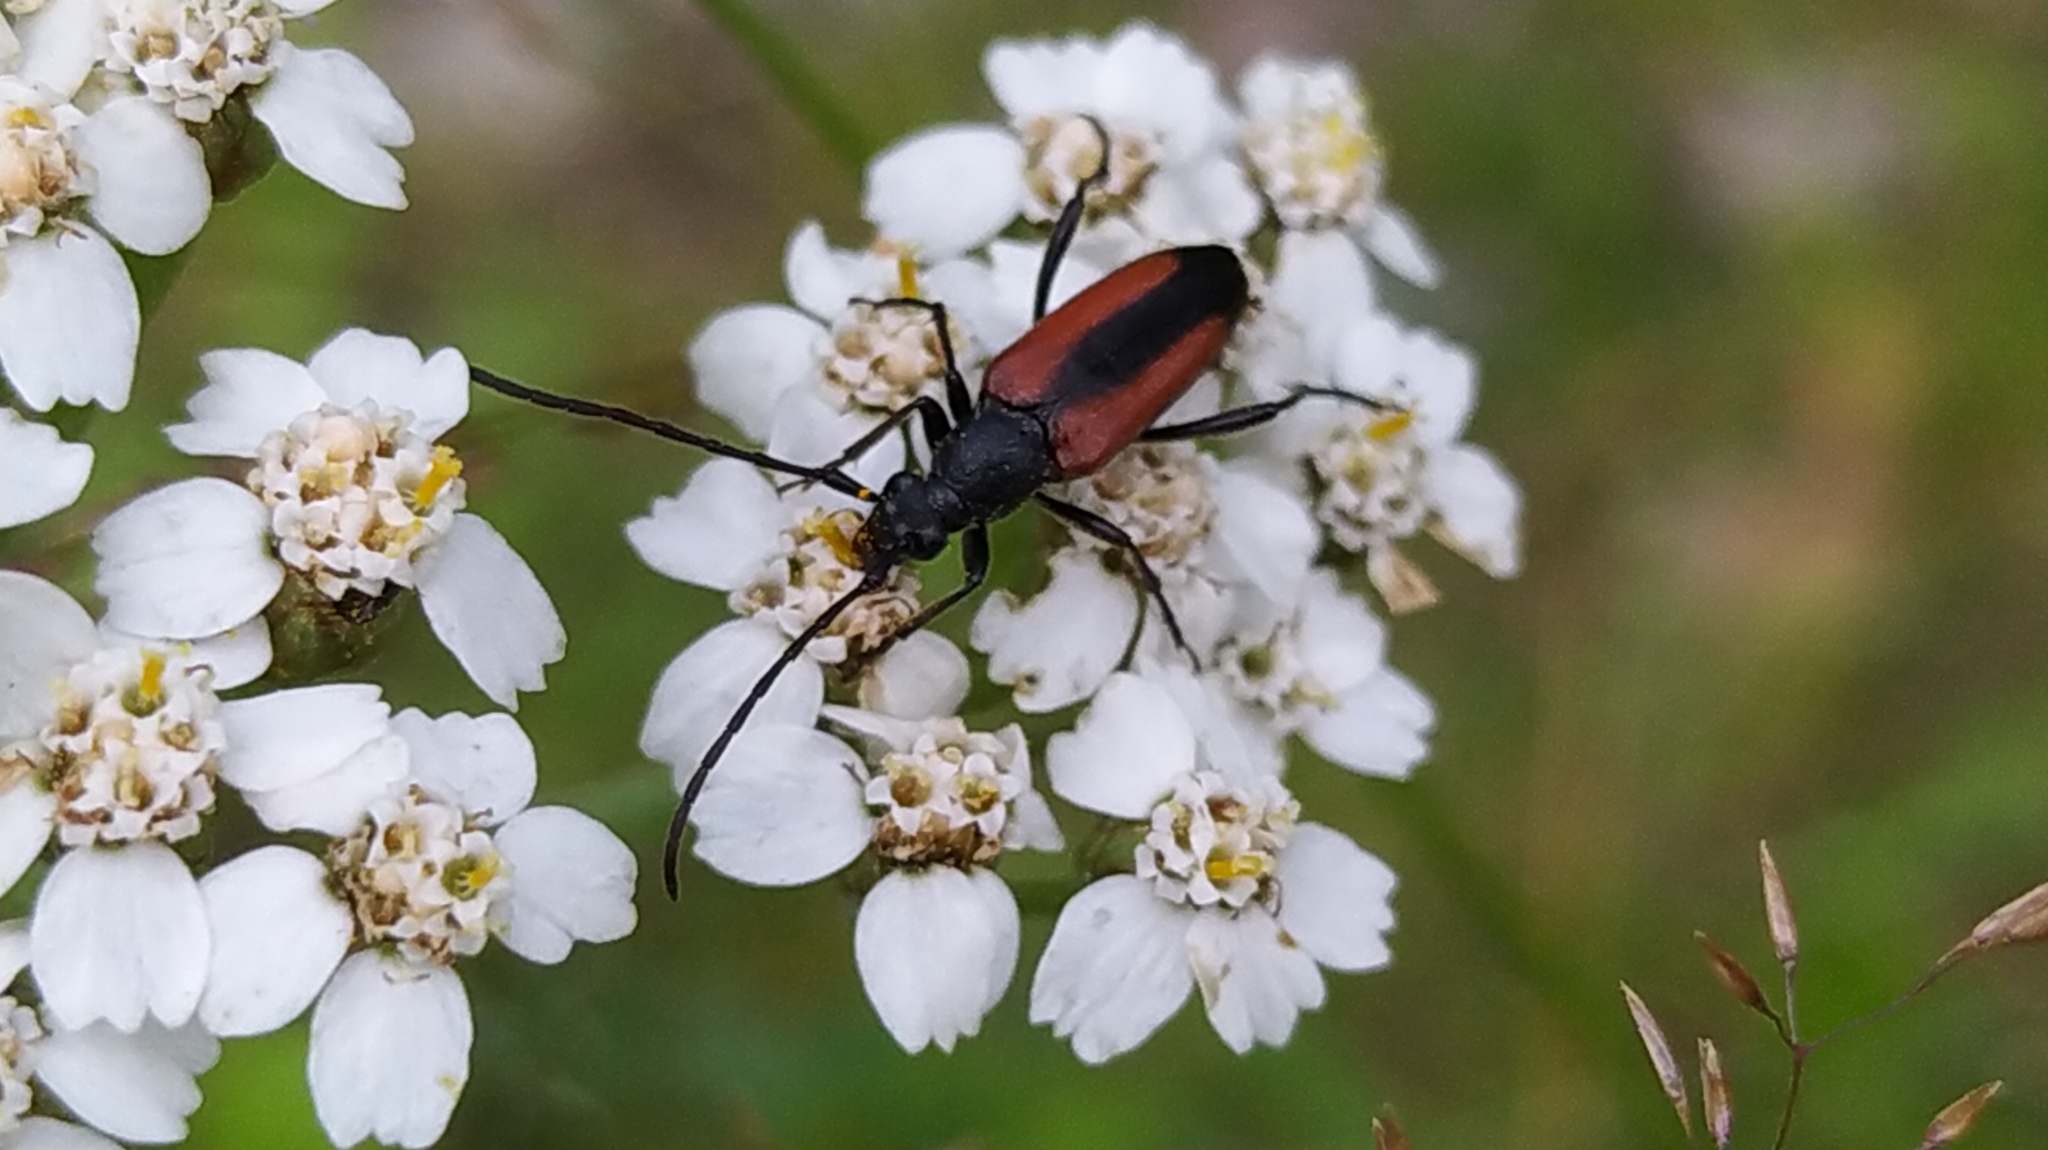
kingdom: Animalia
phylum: Arthropoda
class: Insecta
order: Coleoptera
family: Cerambycidae
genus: Stenurella
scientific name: Stenurella melanura
